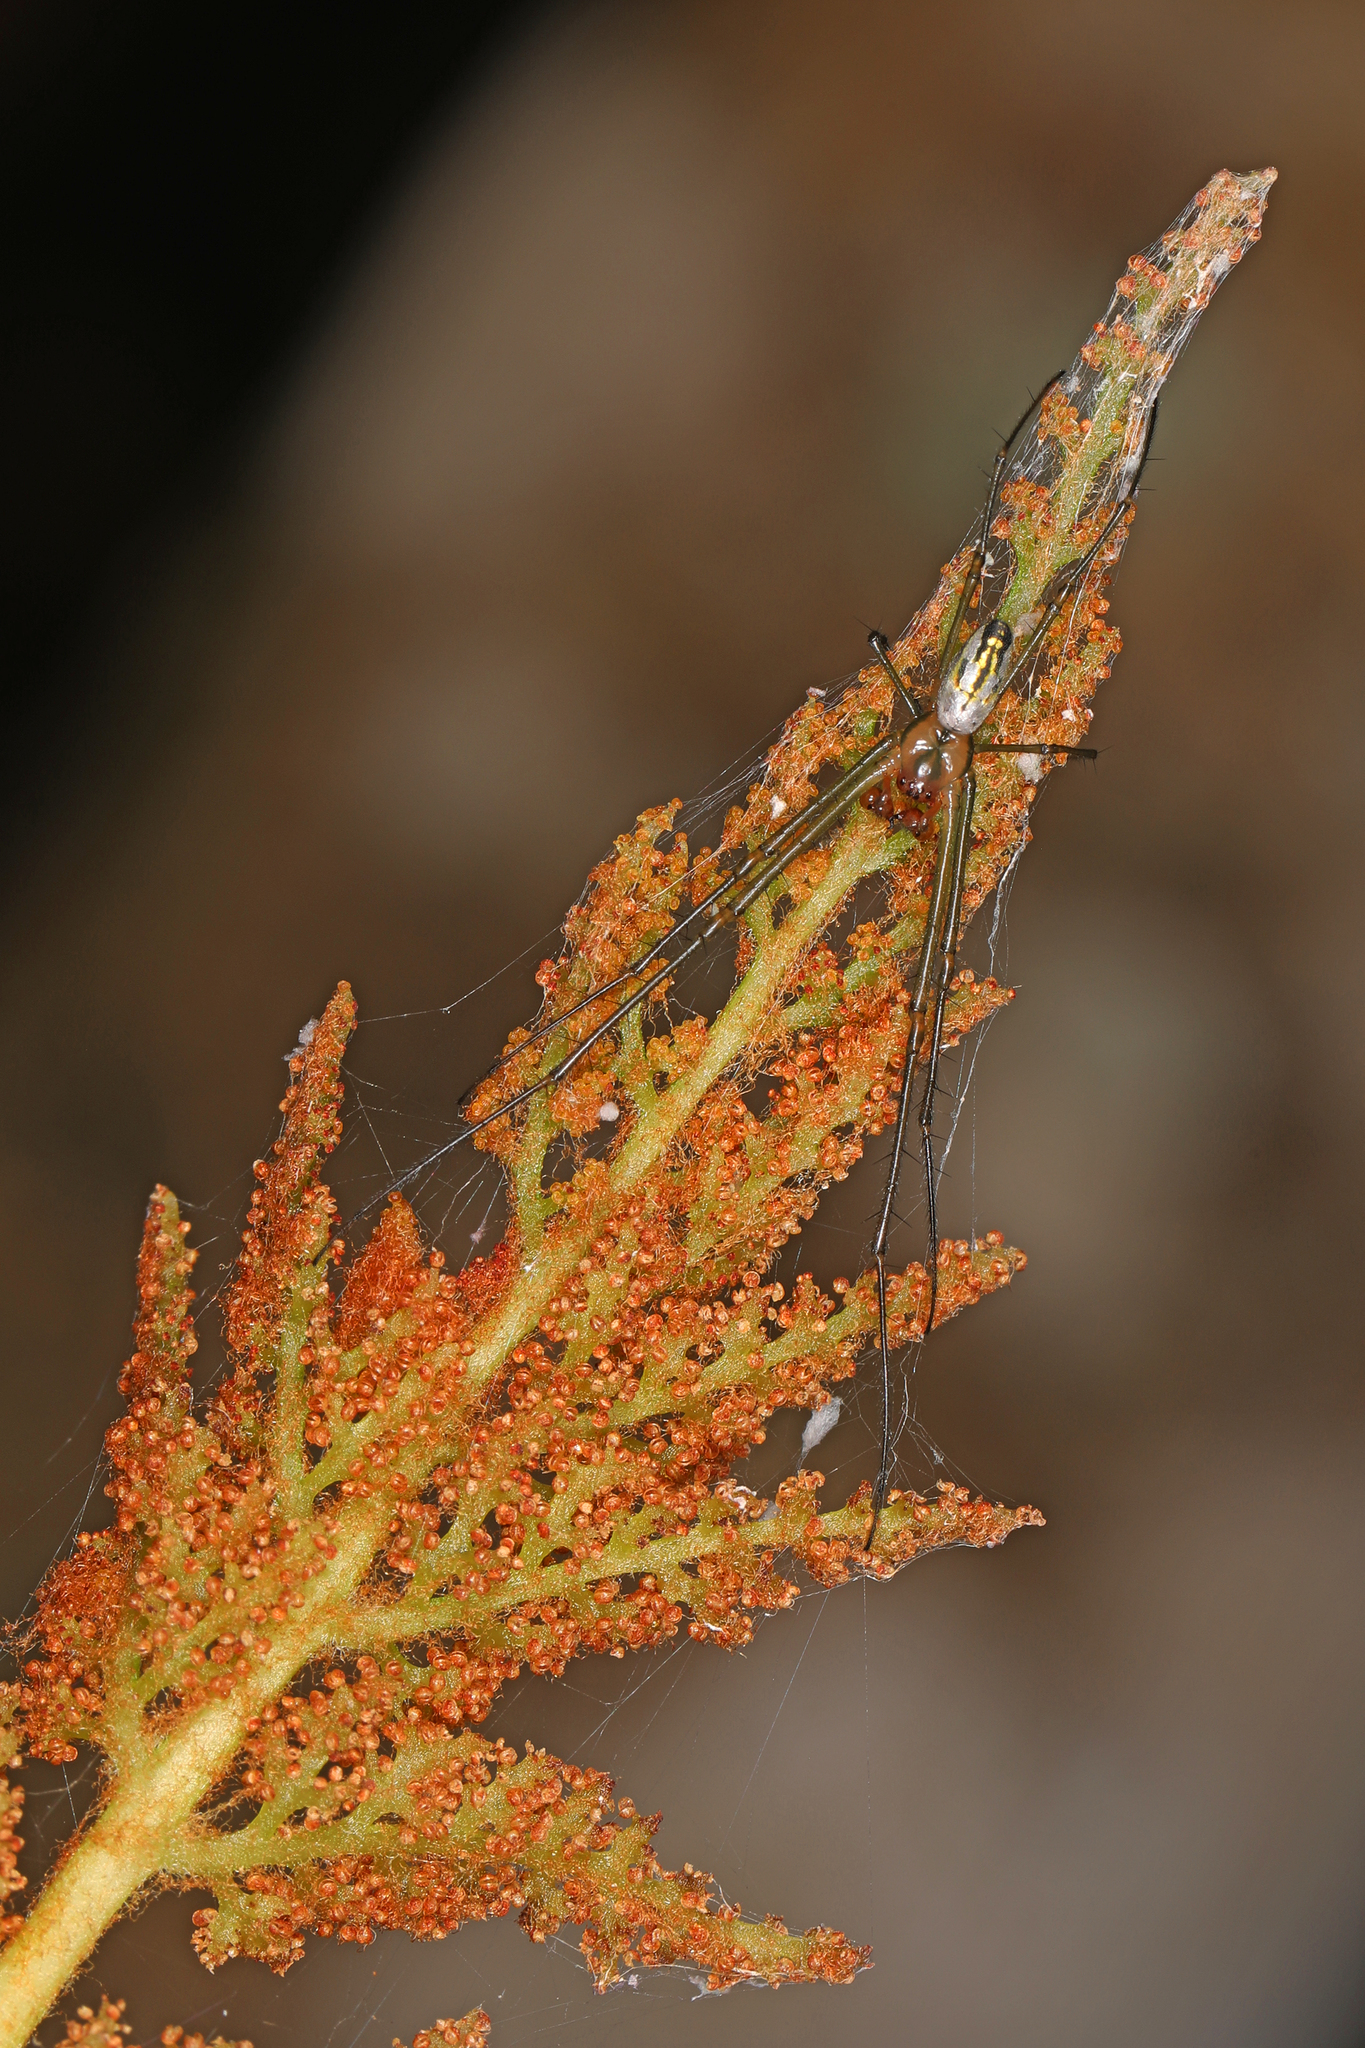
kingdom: Animalia
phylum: Arthropoda
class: Arachnida
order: Araneae
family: Tetragnathidae
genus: Leucauge
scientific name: Leucauge argyra
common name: Longjawed orb weavers
